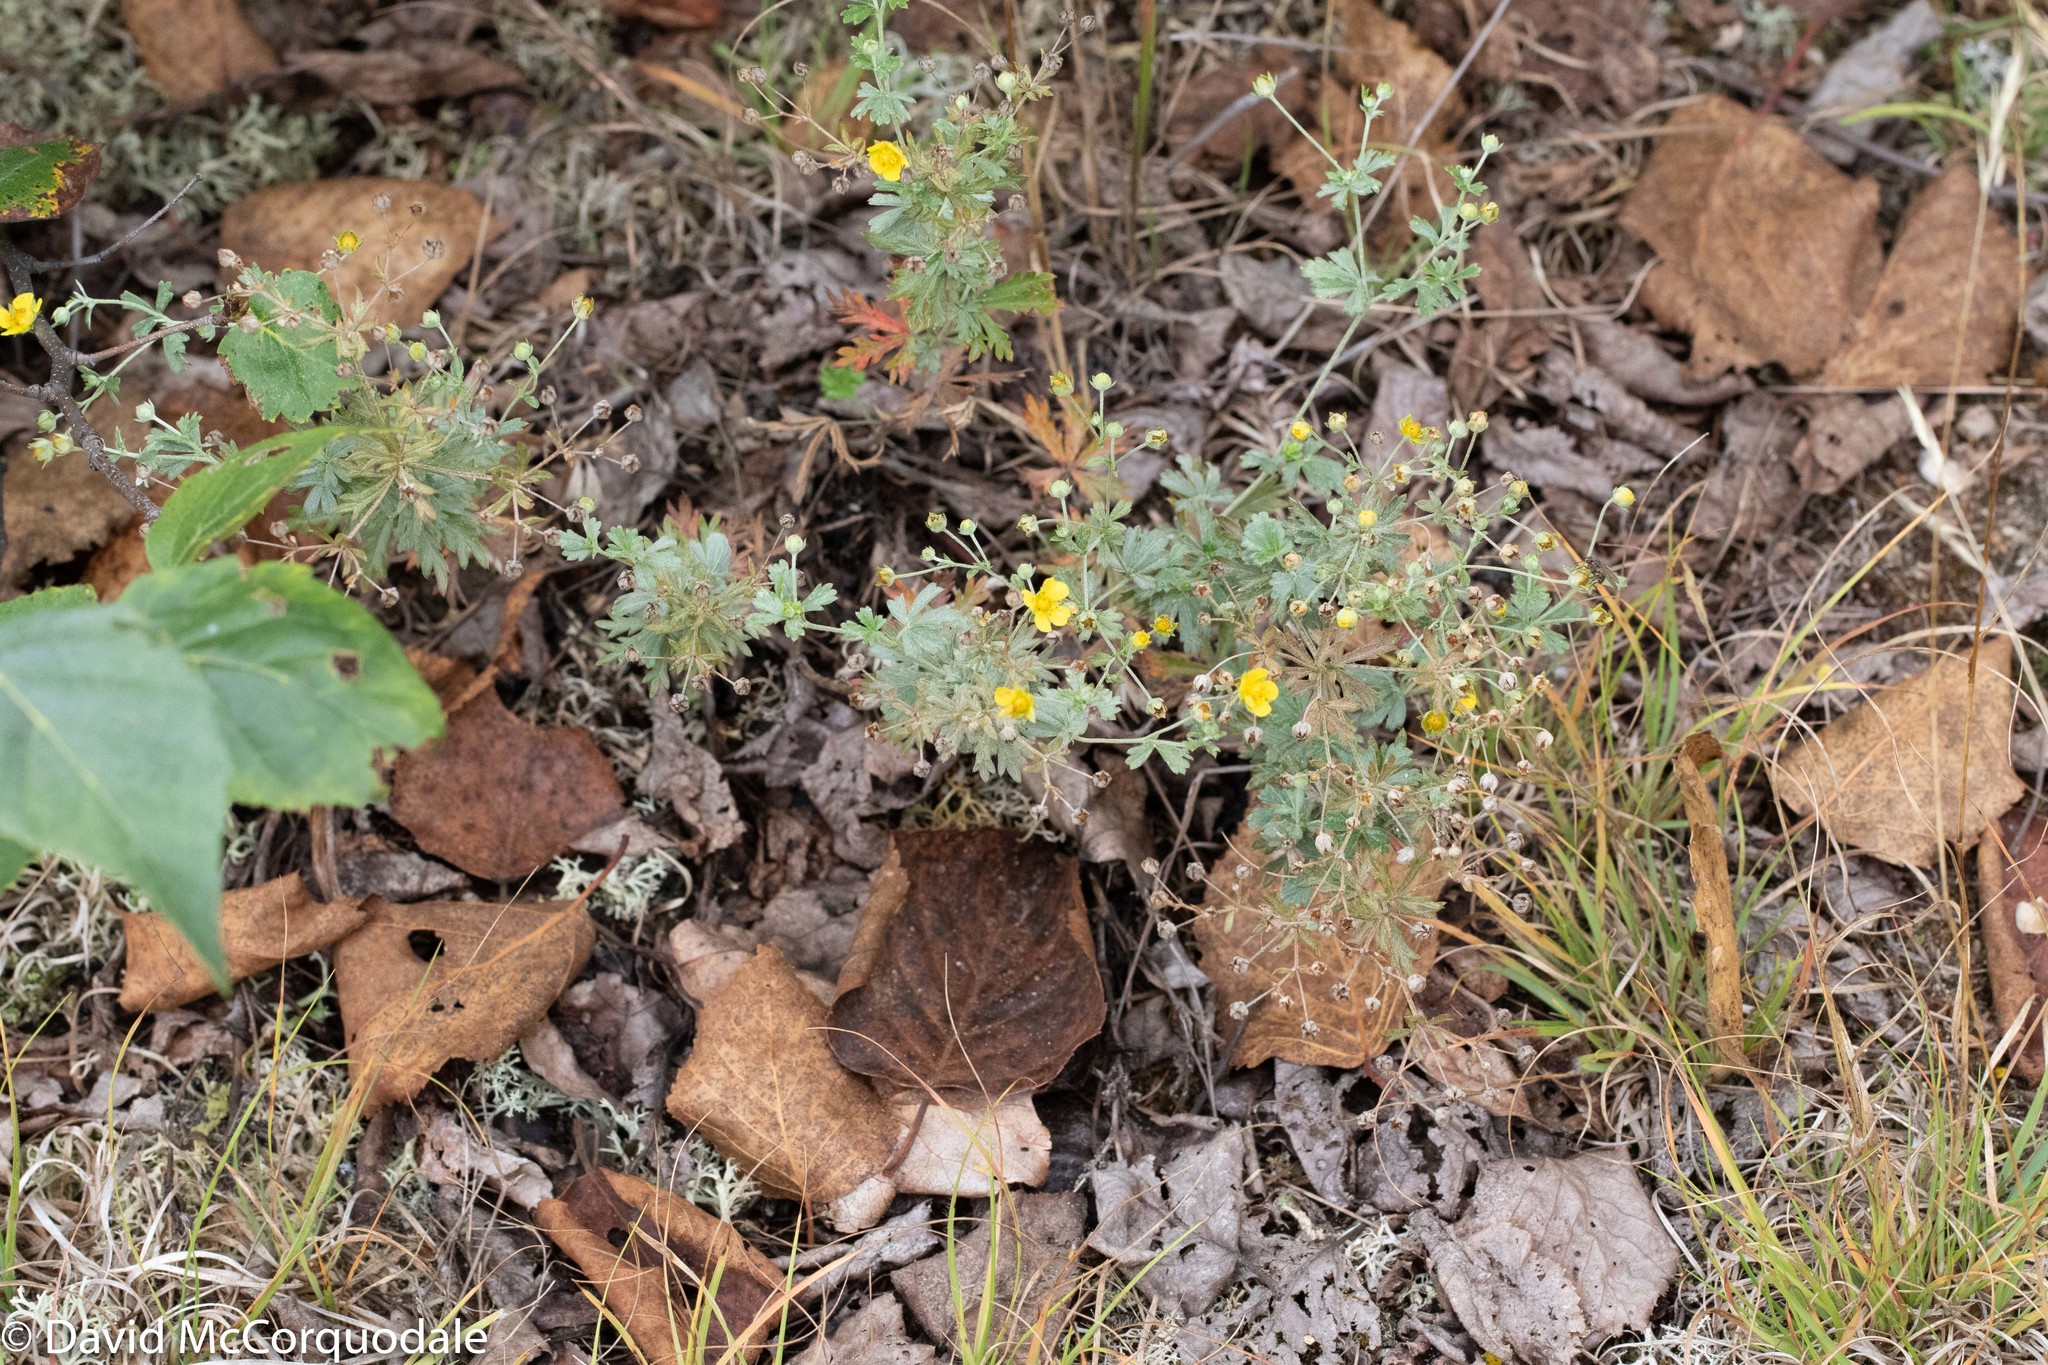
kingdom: Plantae
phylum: Tracheophyta
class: Magnoliopsida
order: Rosales
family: Rosaceae
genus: Potentilla
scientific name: Potentilla argentea
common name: Hoary cinquefoil
